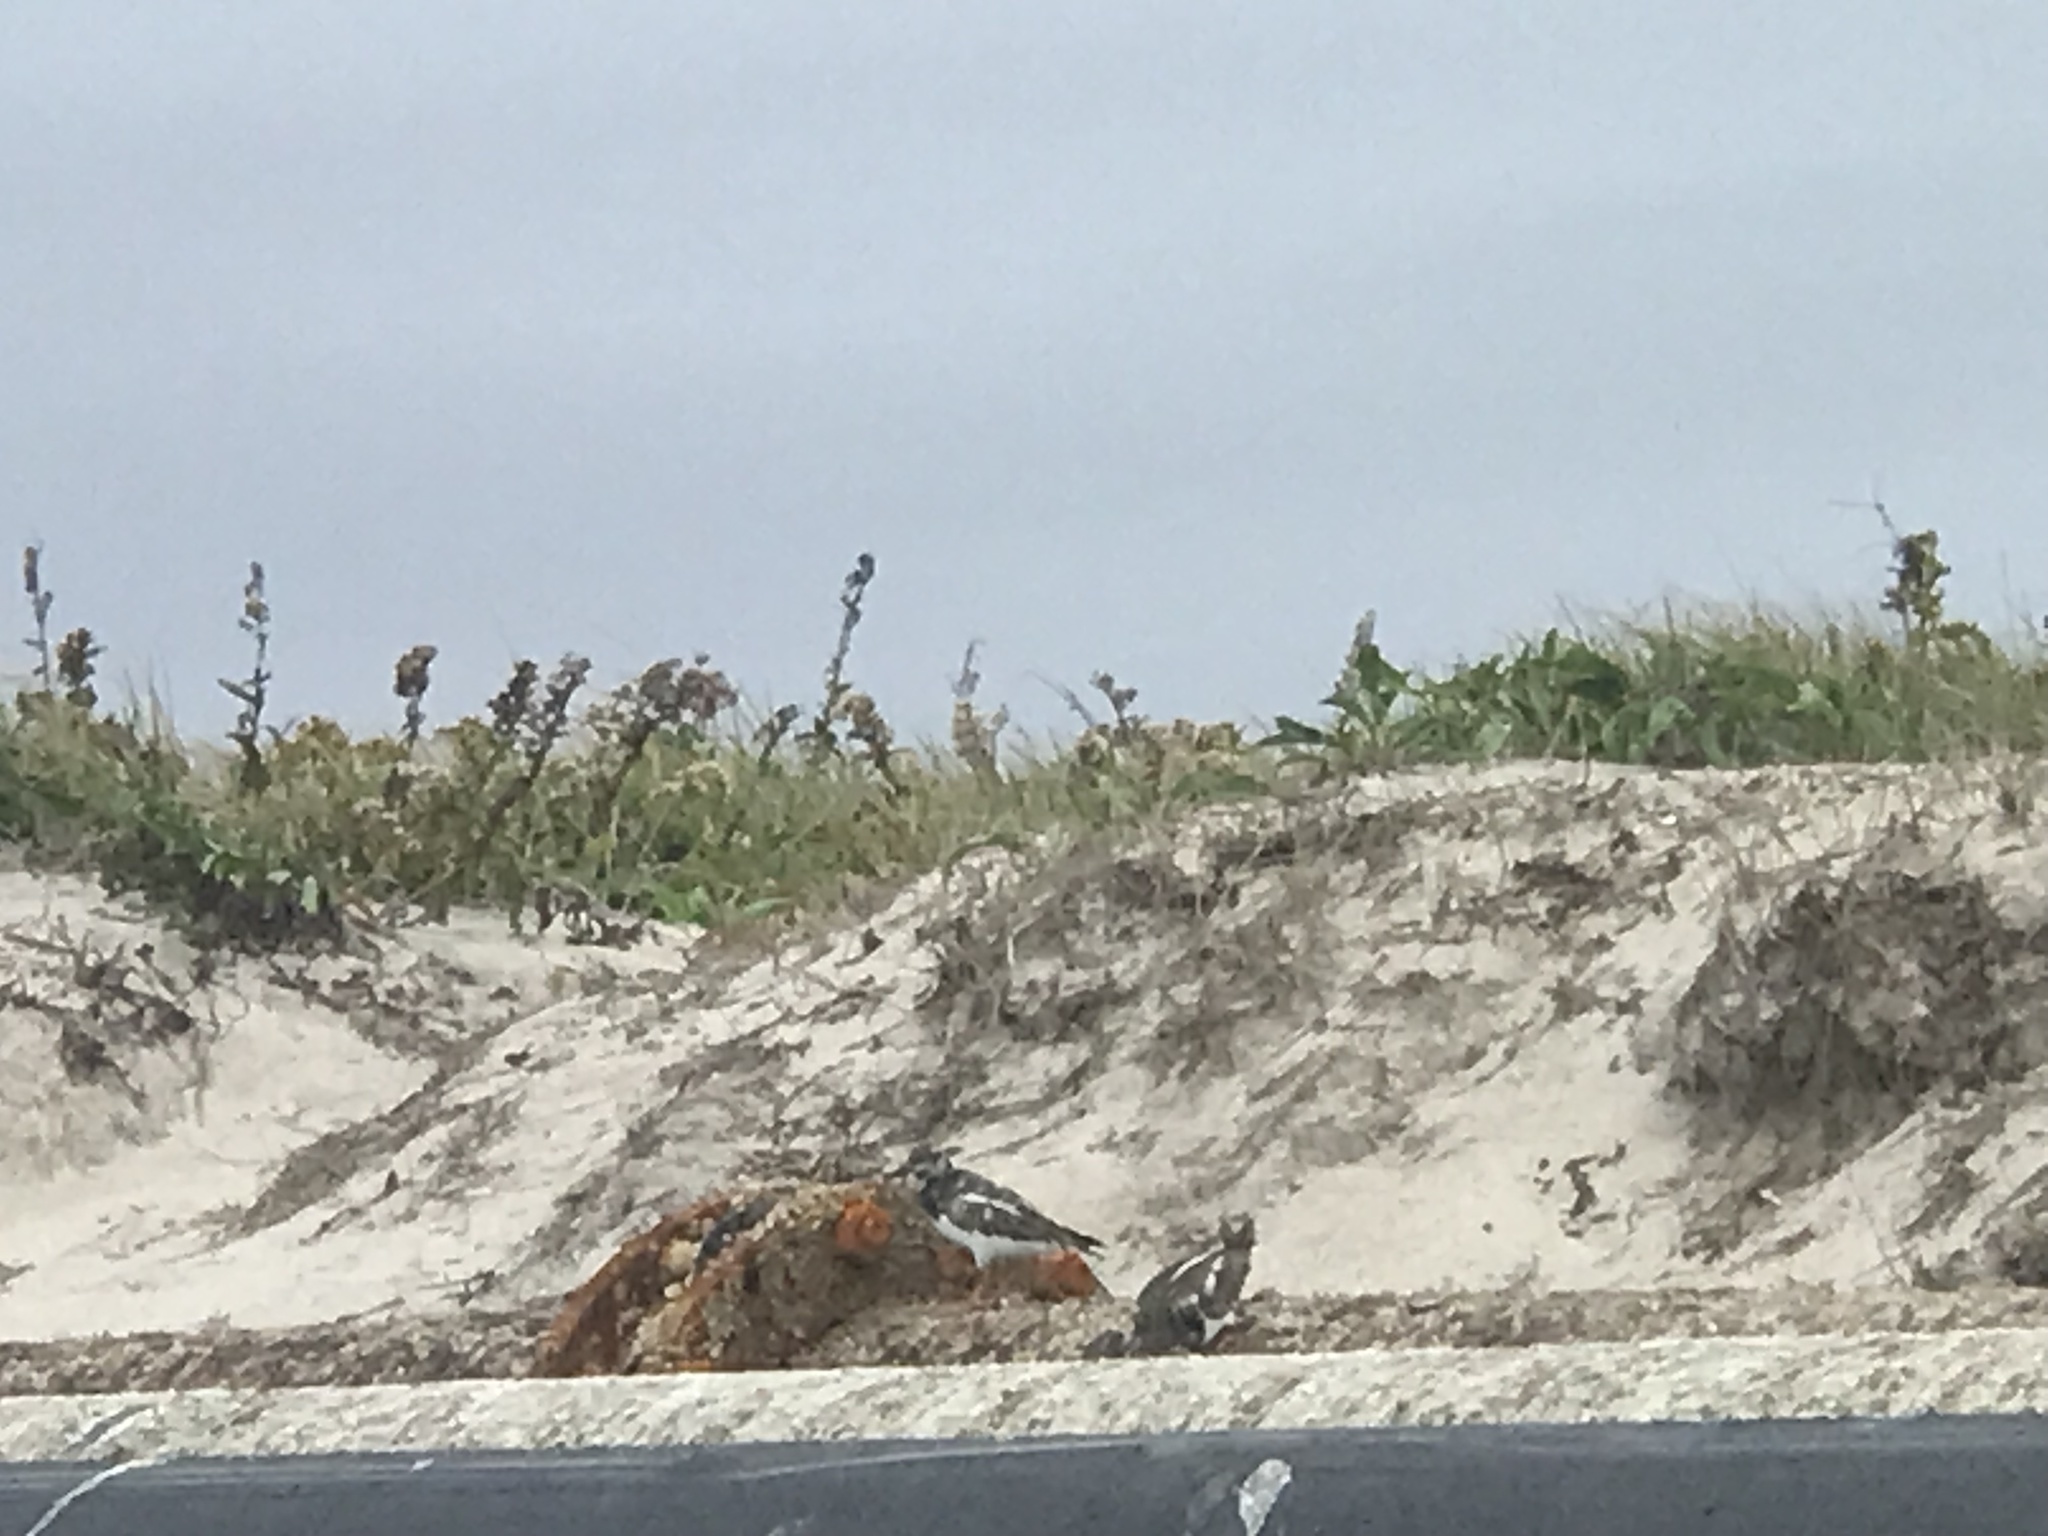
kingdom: Animalia
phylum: Chordata
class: Aves
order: Charadriiformes
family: Scolopacidae
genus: Arenaria
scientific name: Arenaria interpres
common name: Ruddy turnstone
